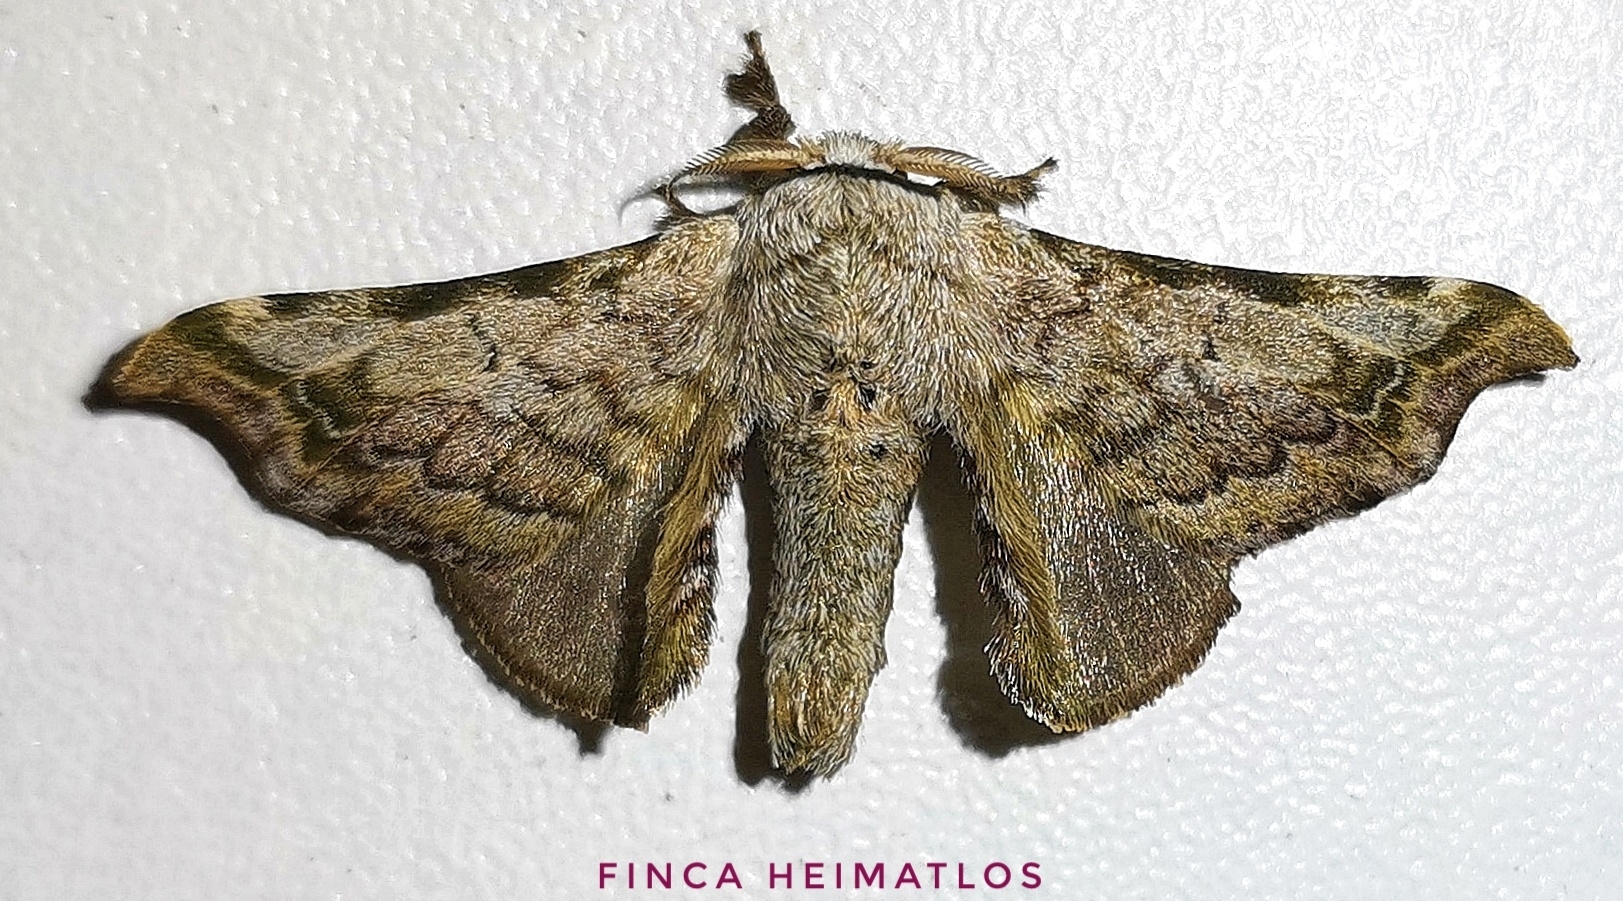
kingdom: Animalia
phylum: Arthropoda
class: Insecta
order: Lepidoptera
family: Bombycidae
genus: Quentalia
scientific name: Quentalia ephonia
